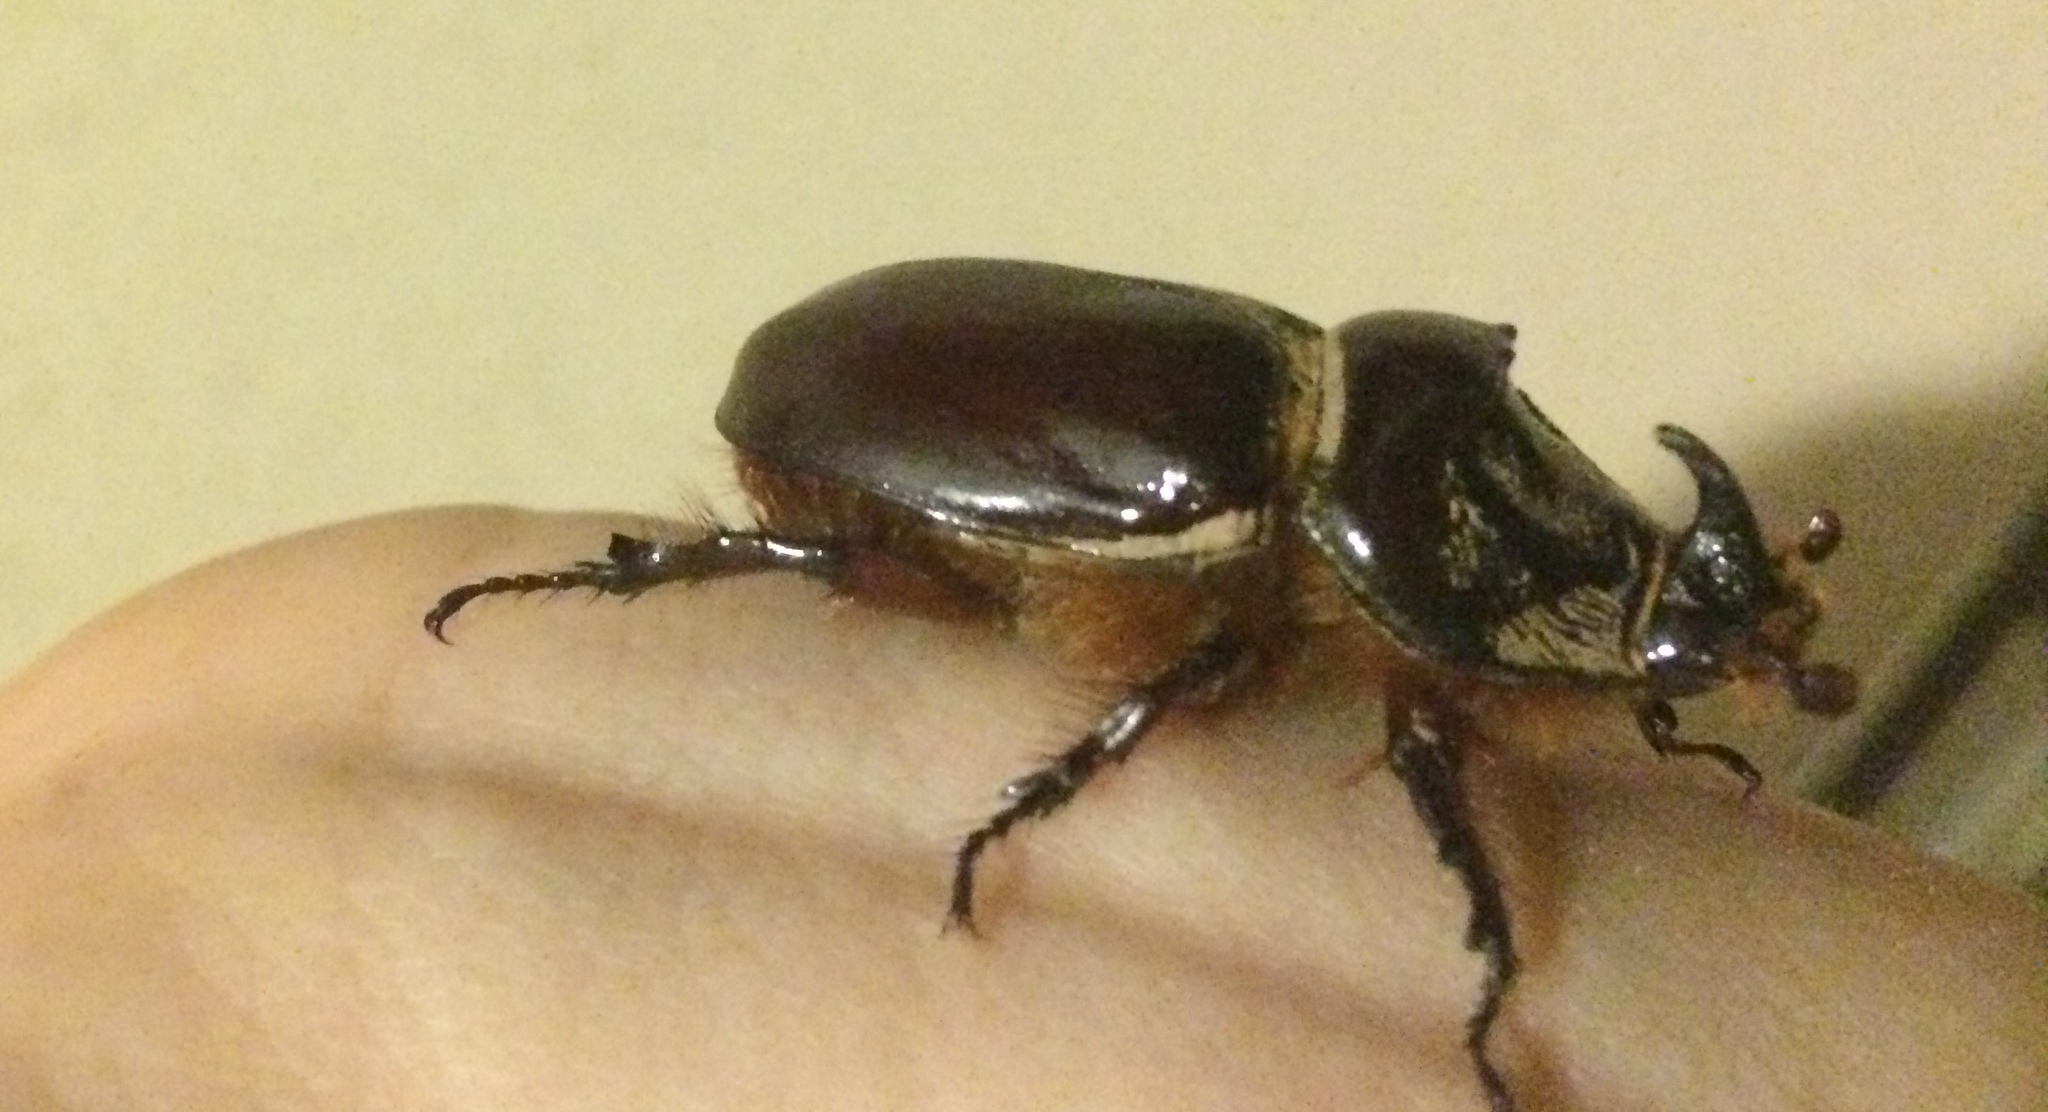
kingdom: Animalia
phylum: Arthropoda
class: Insecta
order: Coleoptera
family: Scarabaeidae
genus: Oryctes
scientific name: Oryctes nasicornis
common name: European rhinoceros beetle
